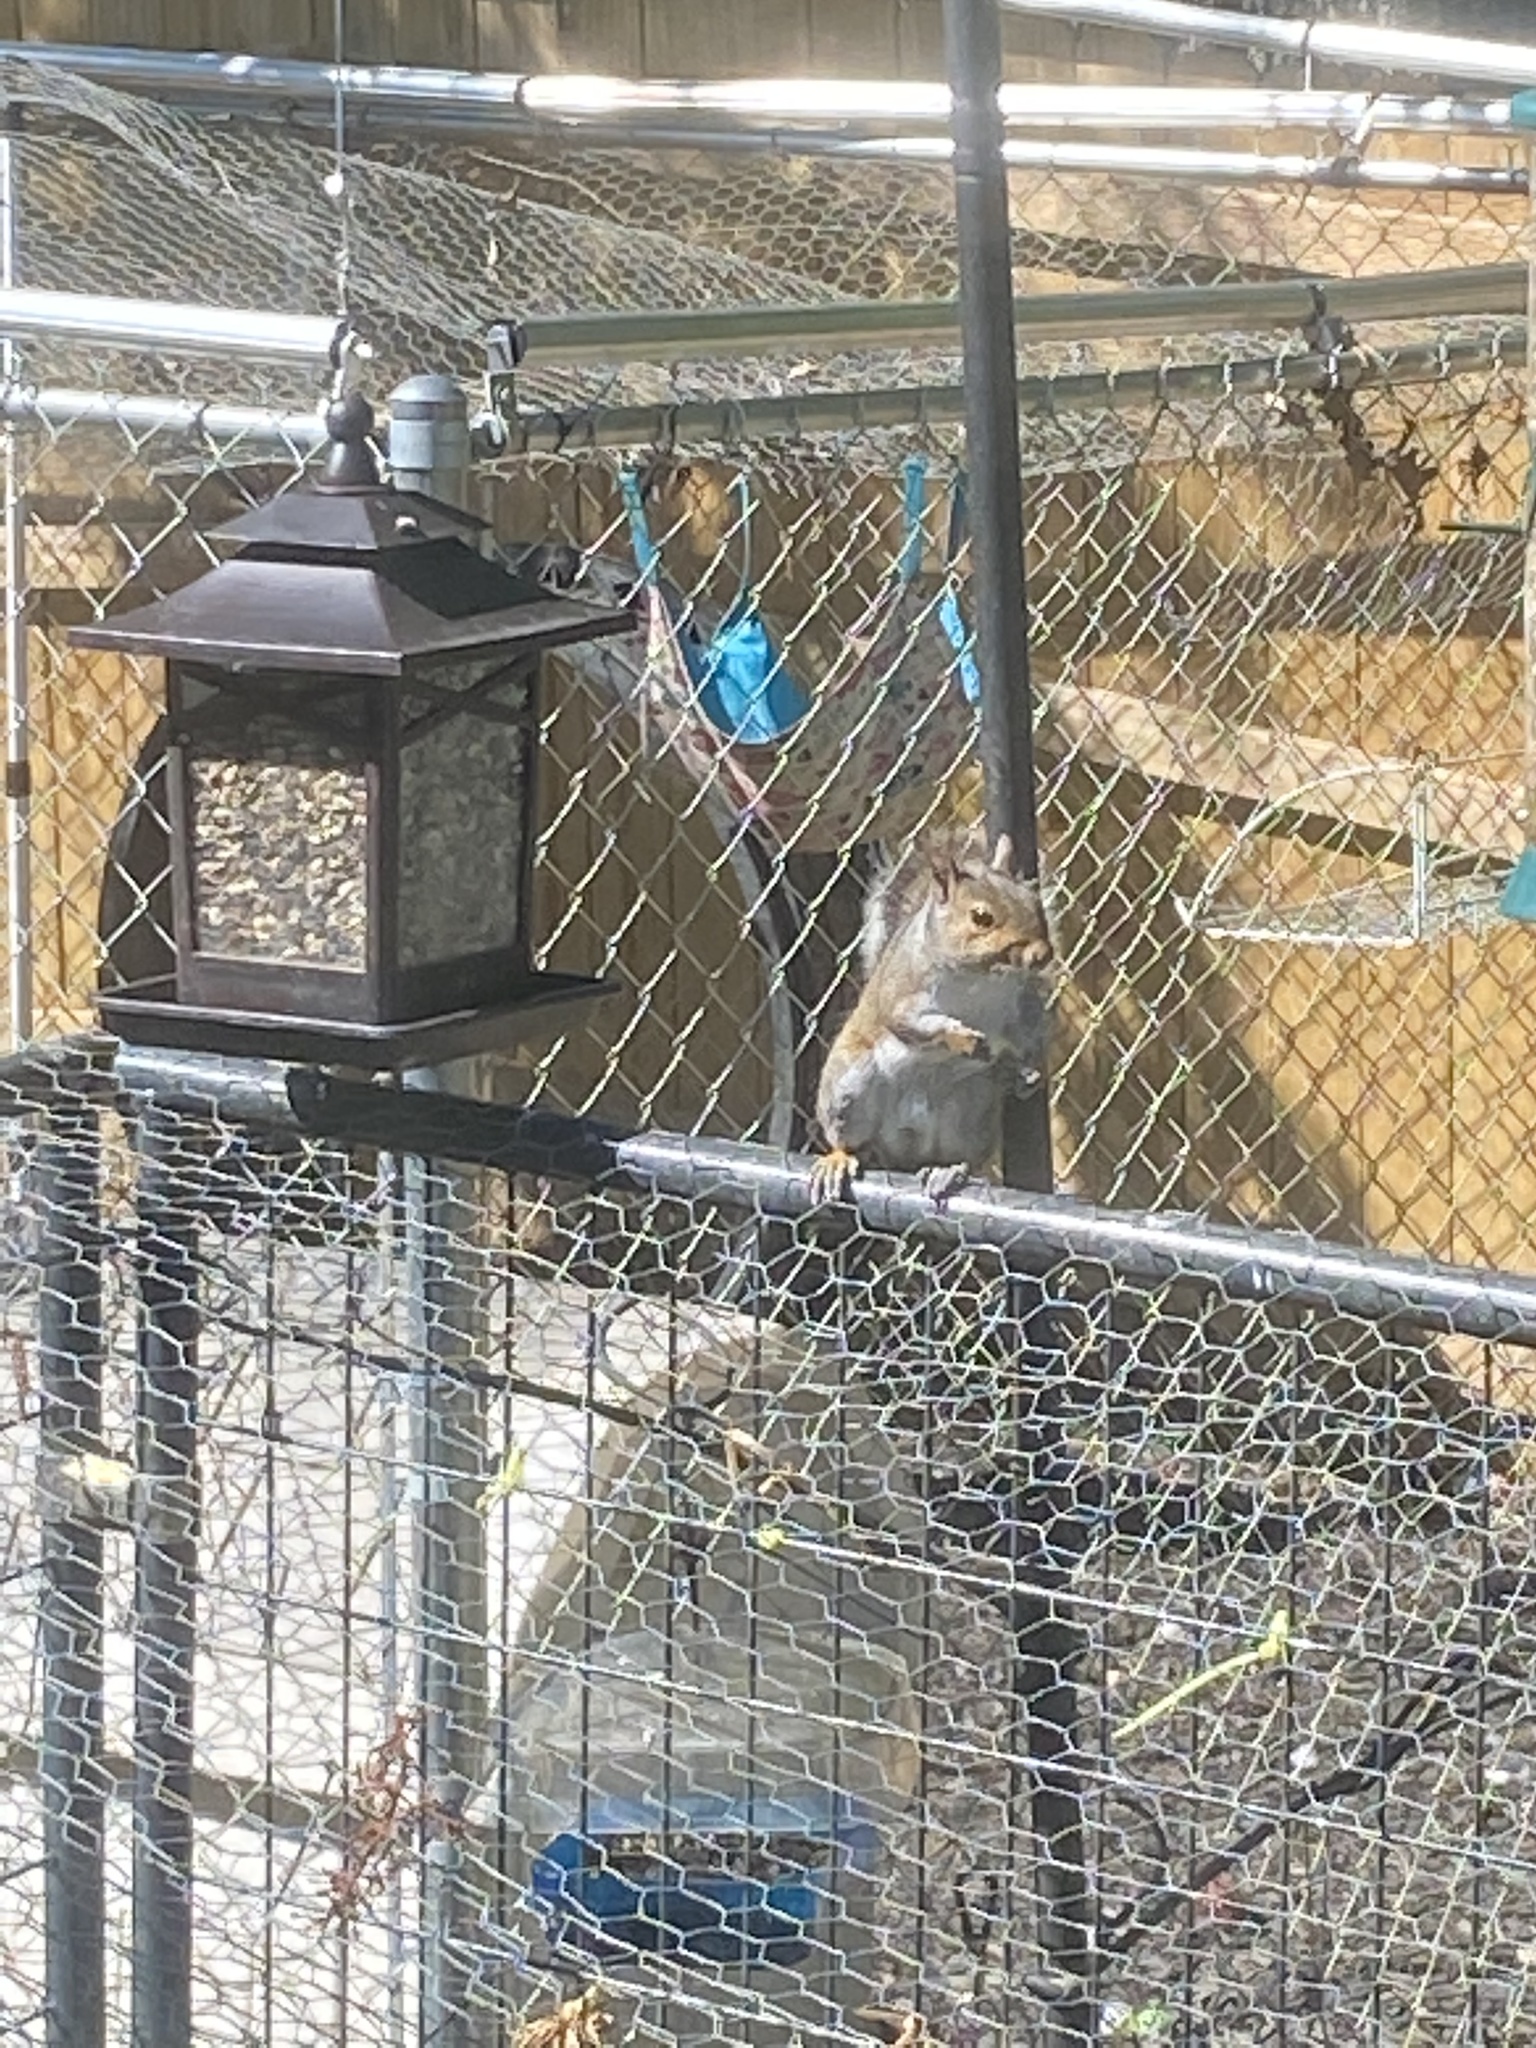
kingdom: Animalia
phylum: Chordata
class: Mammalia
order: Rodentia
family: Sciuridae
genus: Sciurus
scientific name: Sciurus carolinensis
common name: Eastern gray squirrel
